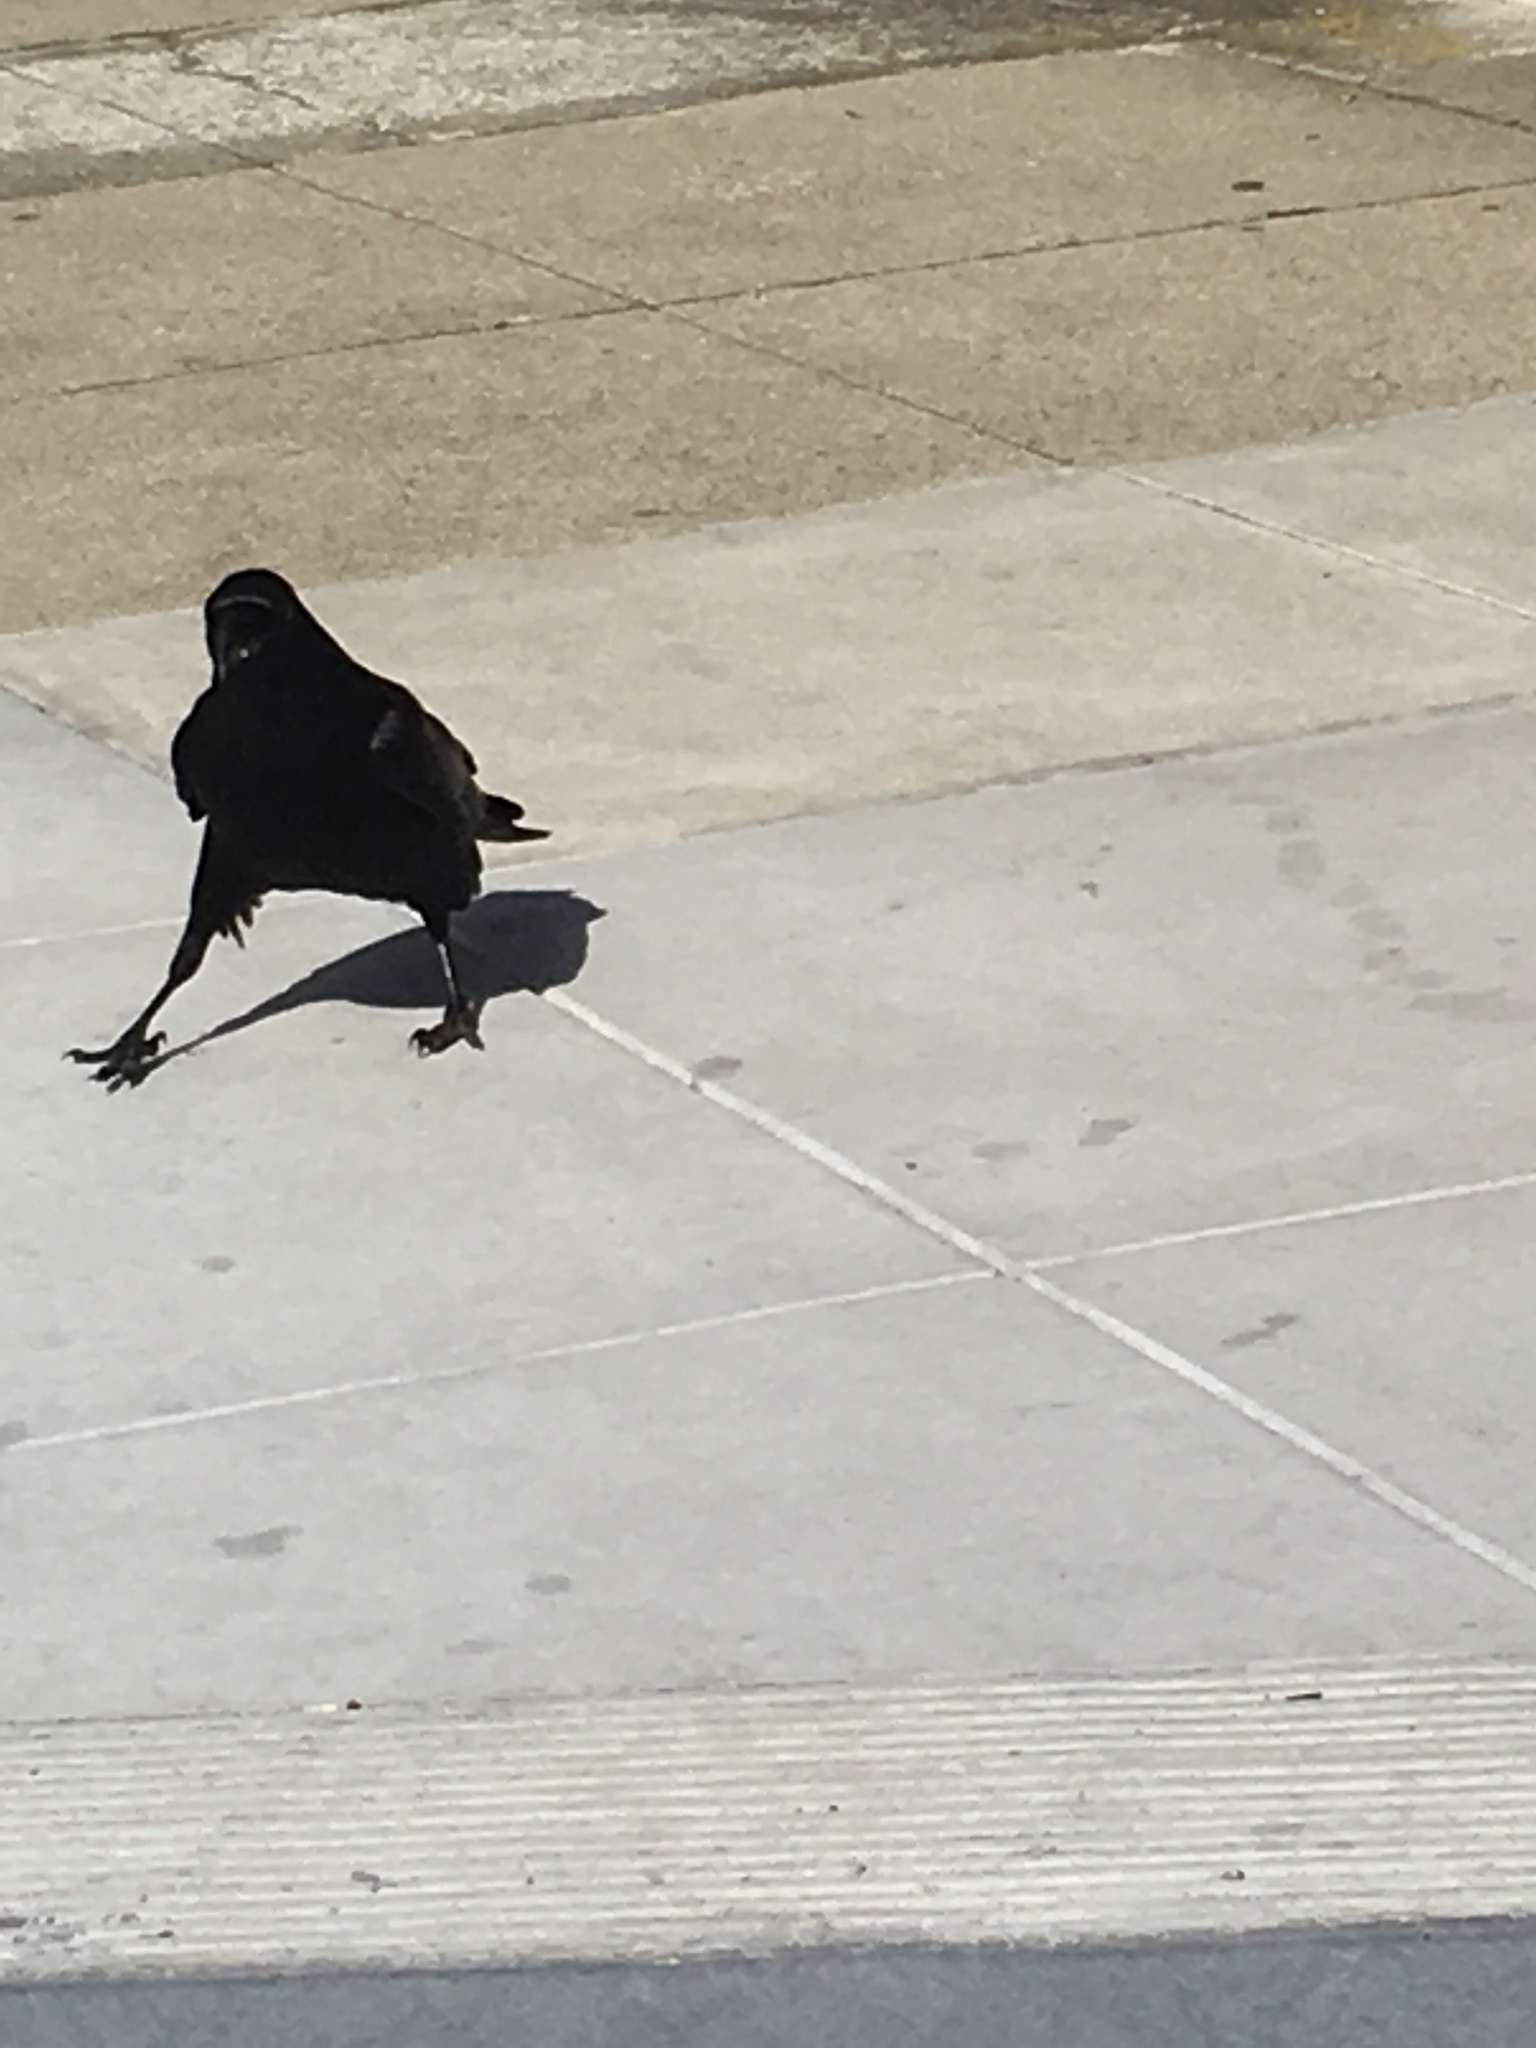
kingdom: Animalia
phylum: Chordata
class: Aves
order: Passeriformes
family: Corvidae
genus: Corvus
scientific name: Corvus corax
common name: Common raven
